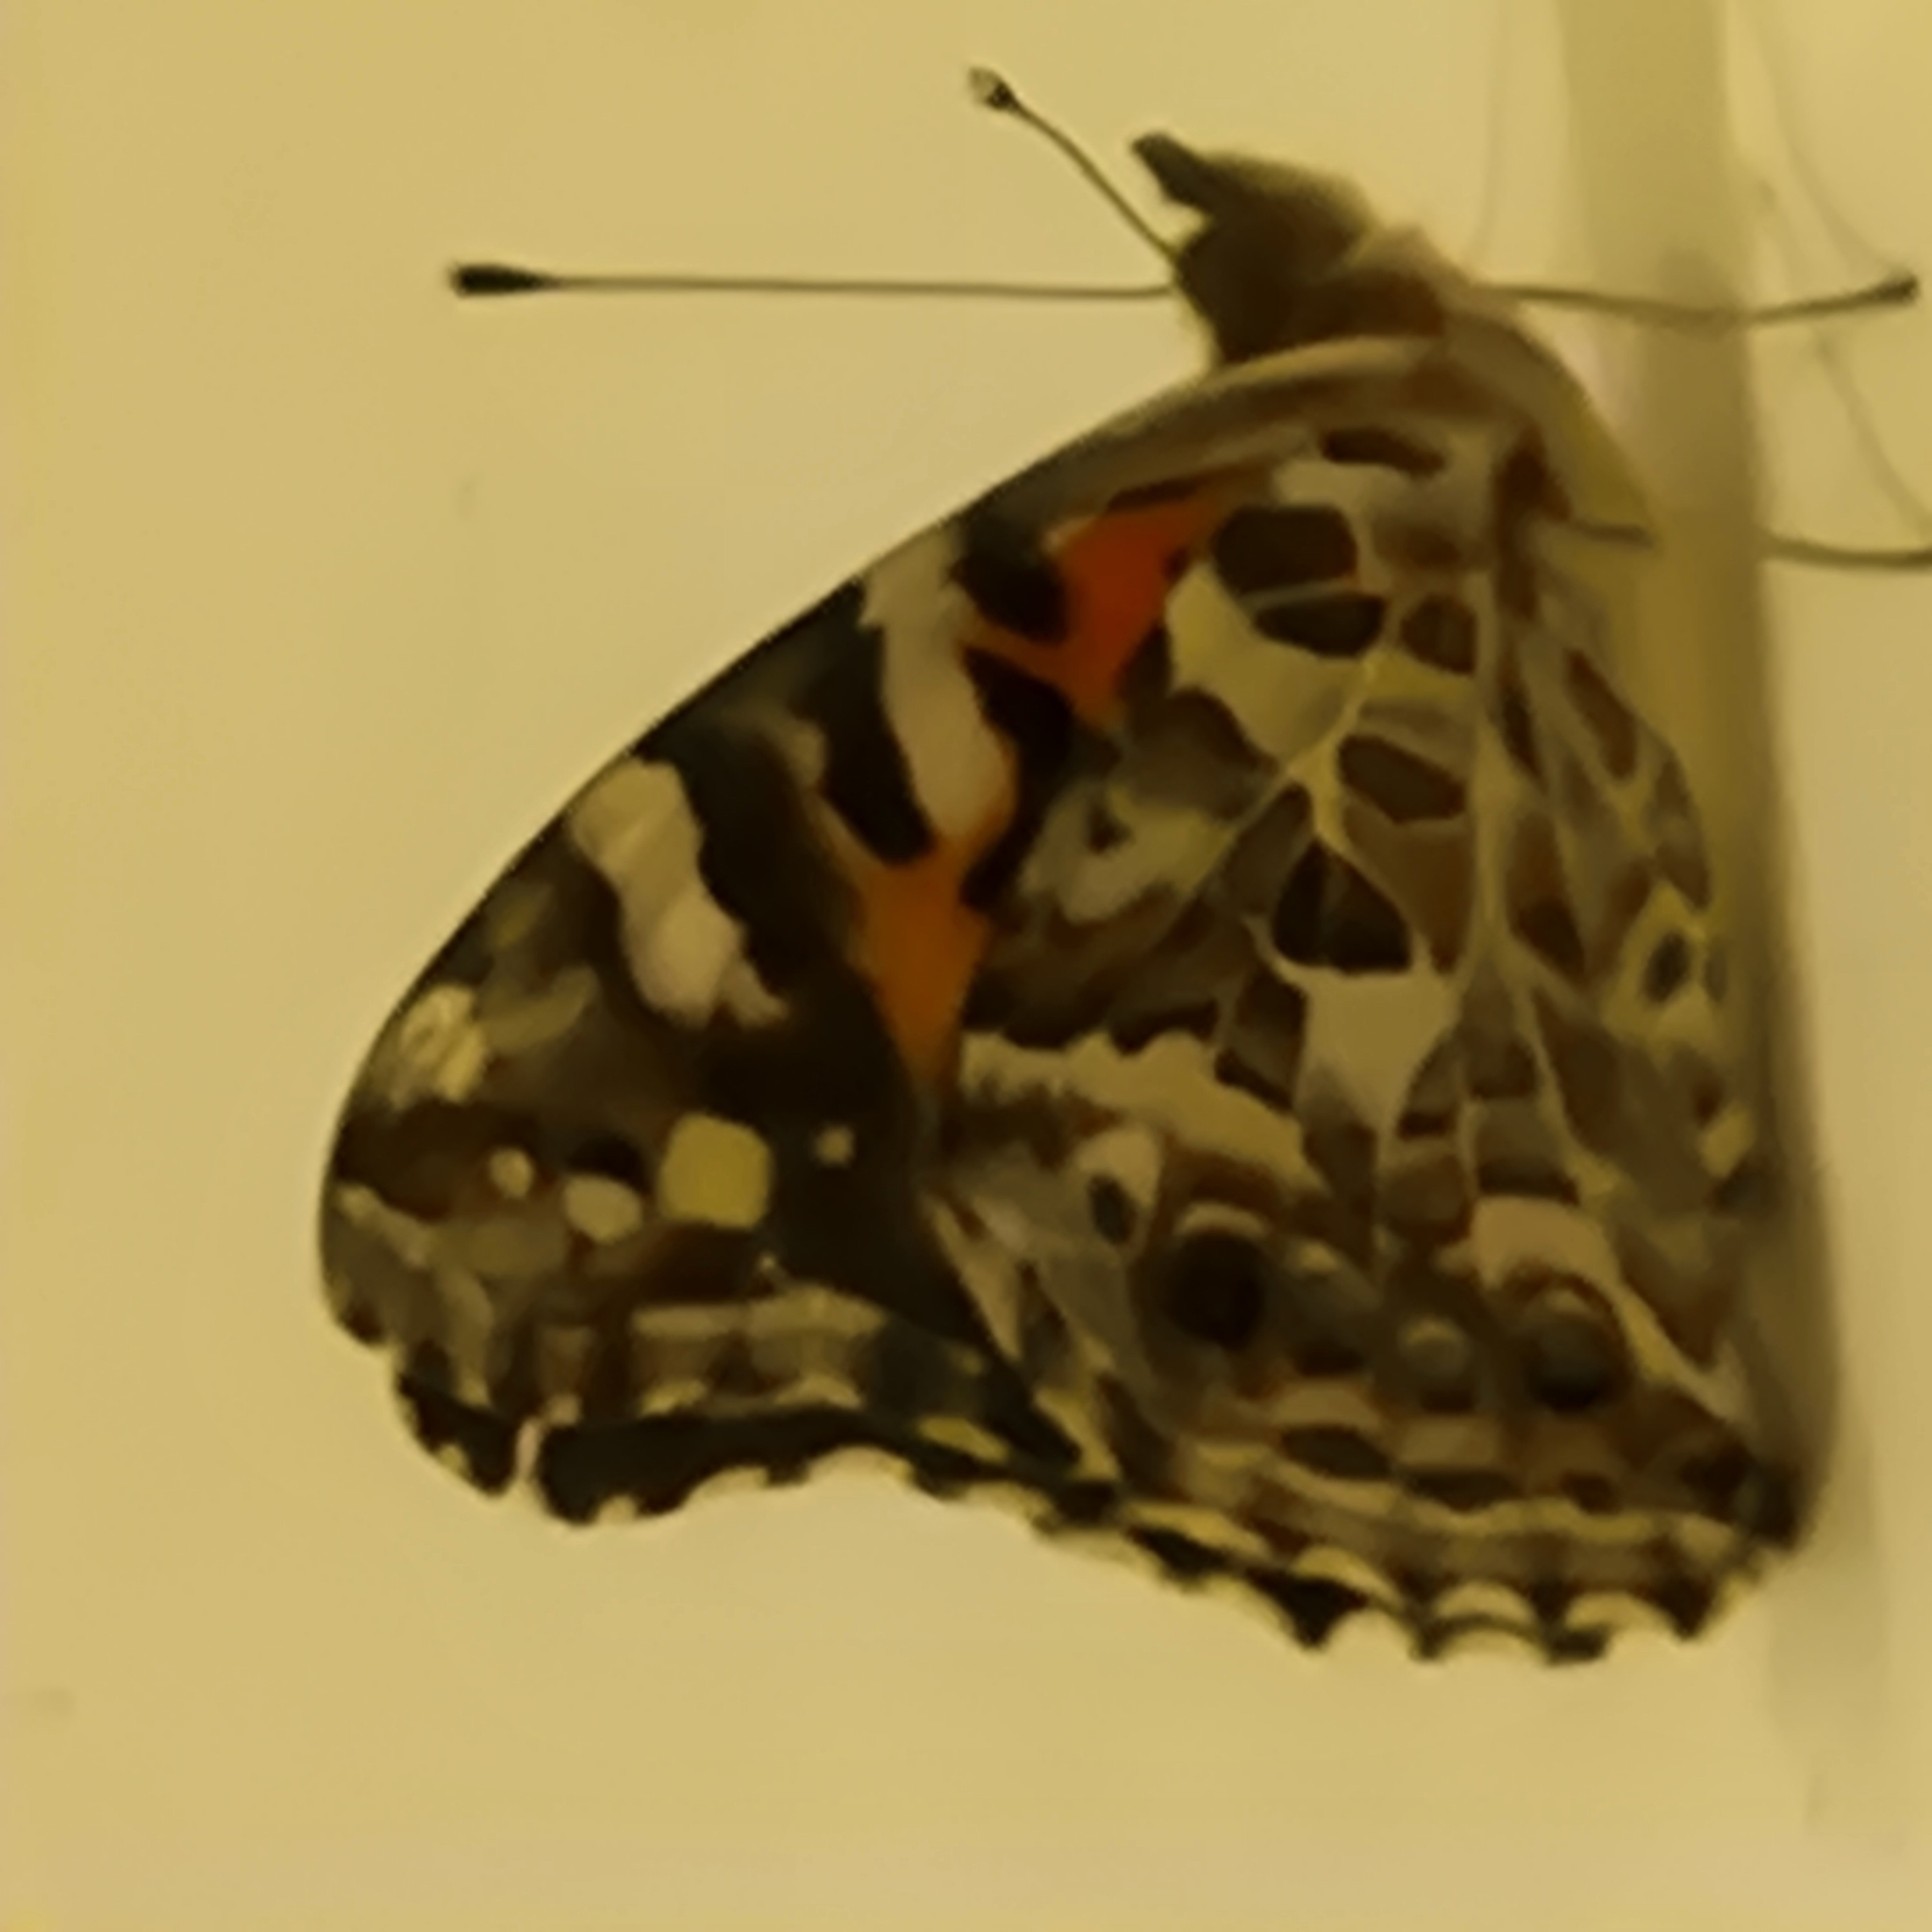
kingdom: Animalia
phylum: Arthropoda
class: Insecta
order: Lepidoptera
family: Nymphalidae
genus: Vanessa
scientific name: Vanessa kershawi
